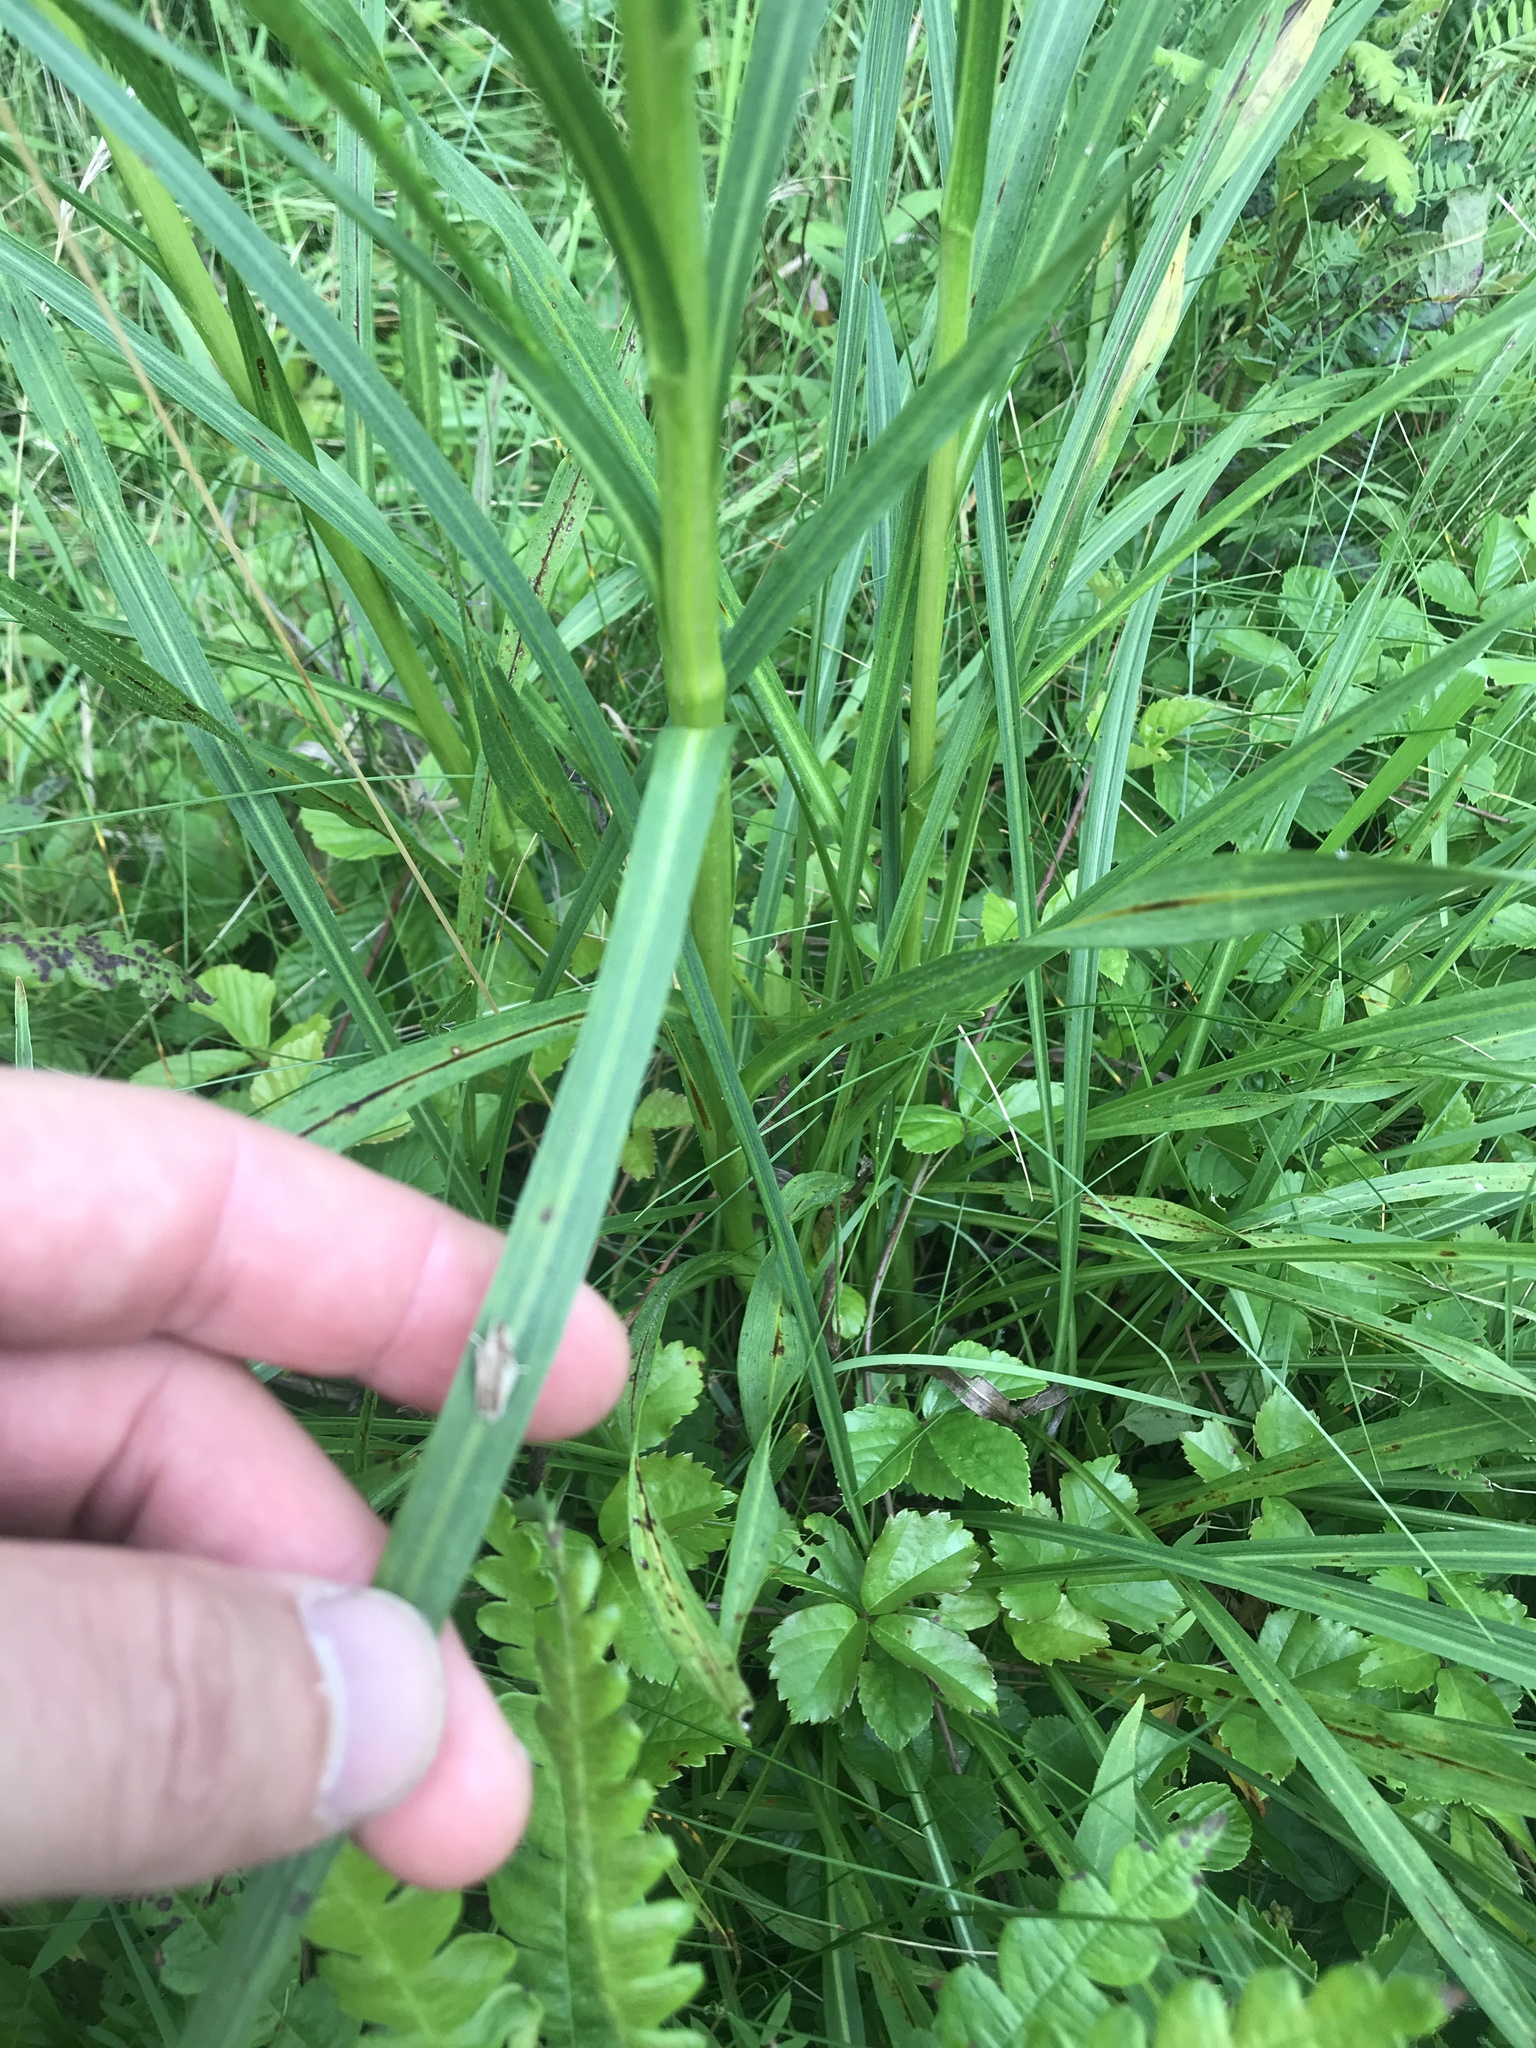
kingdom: Plantae
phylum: Tracheophyta
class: Magnoliopsida
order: Asterales
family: Asteraceae
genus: Liatris
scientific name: Liatris spicata
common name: Florist gayfeather
